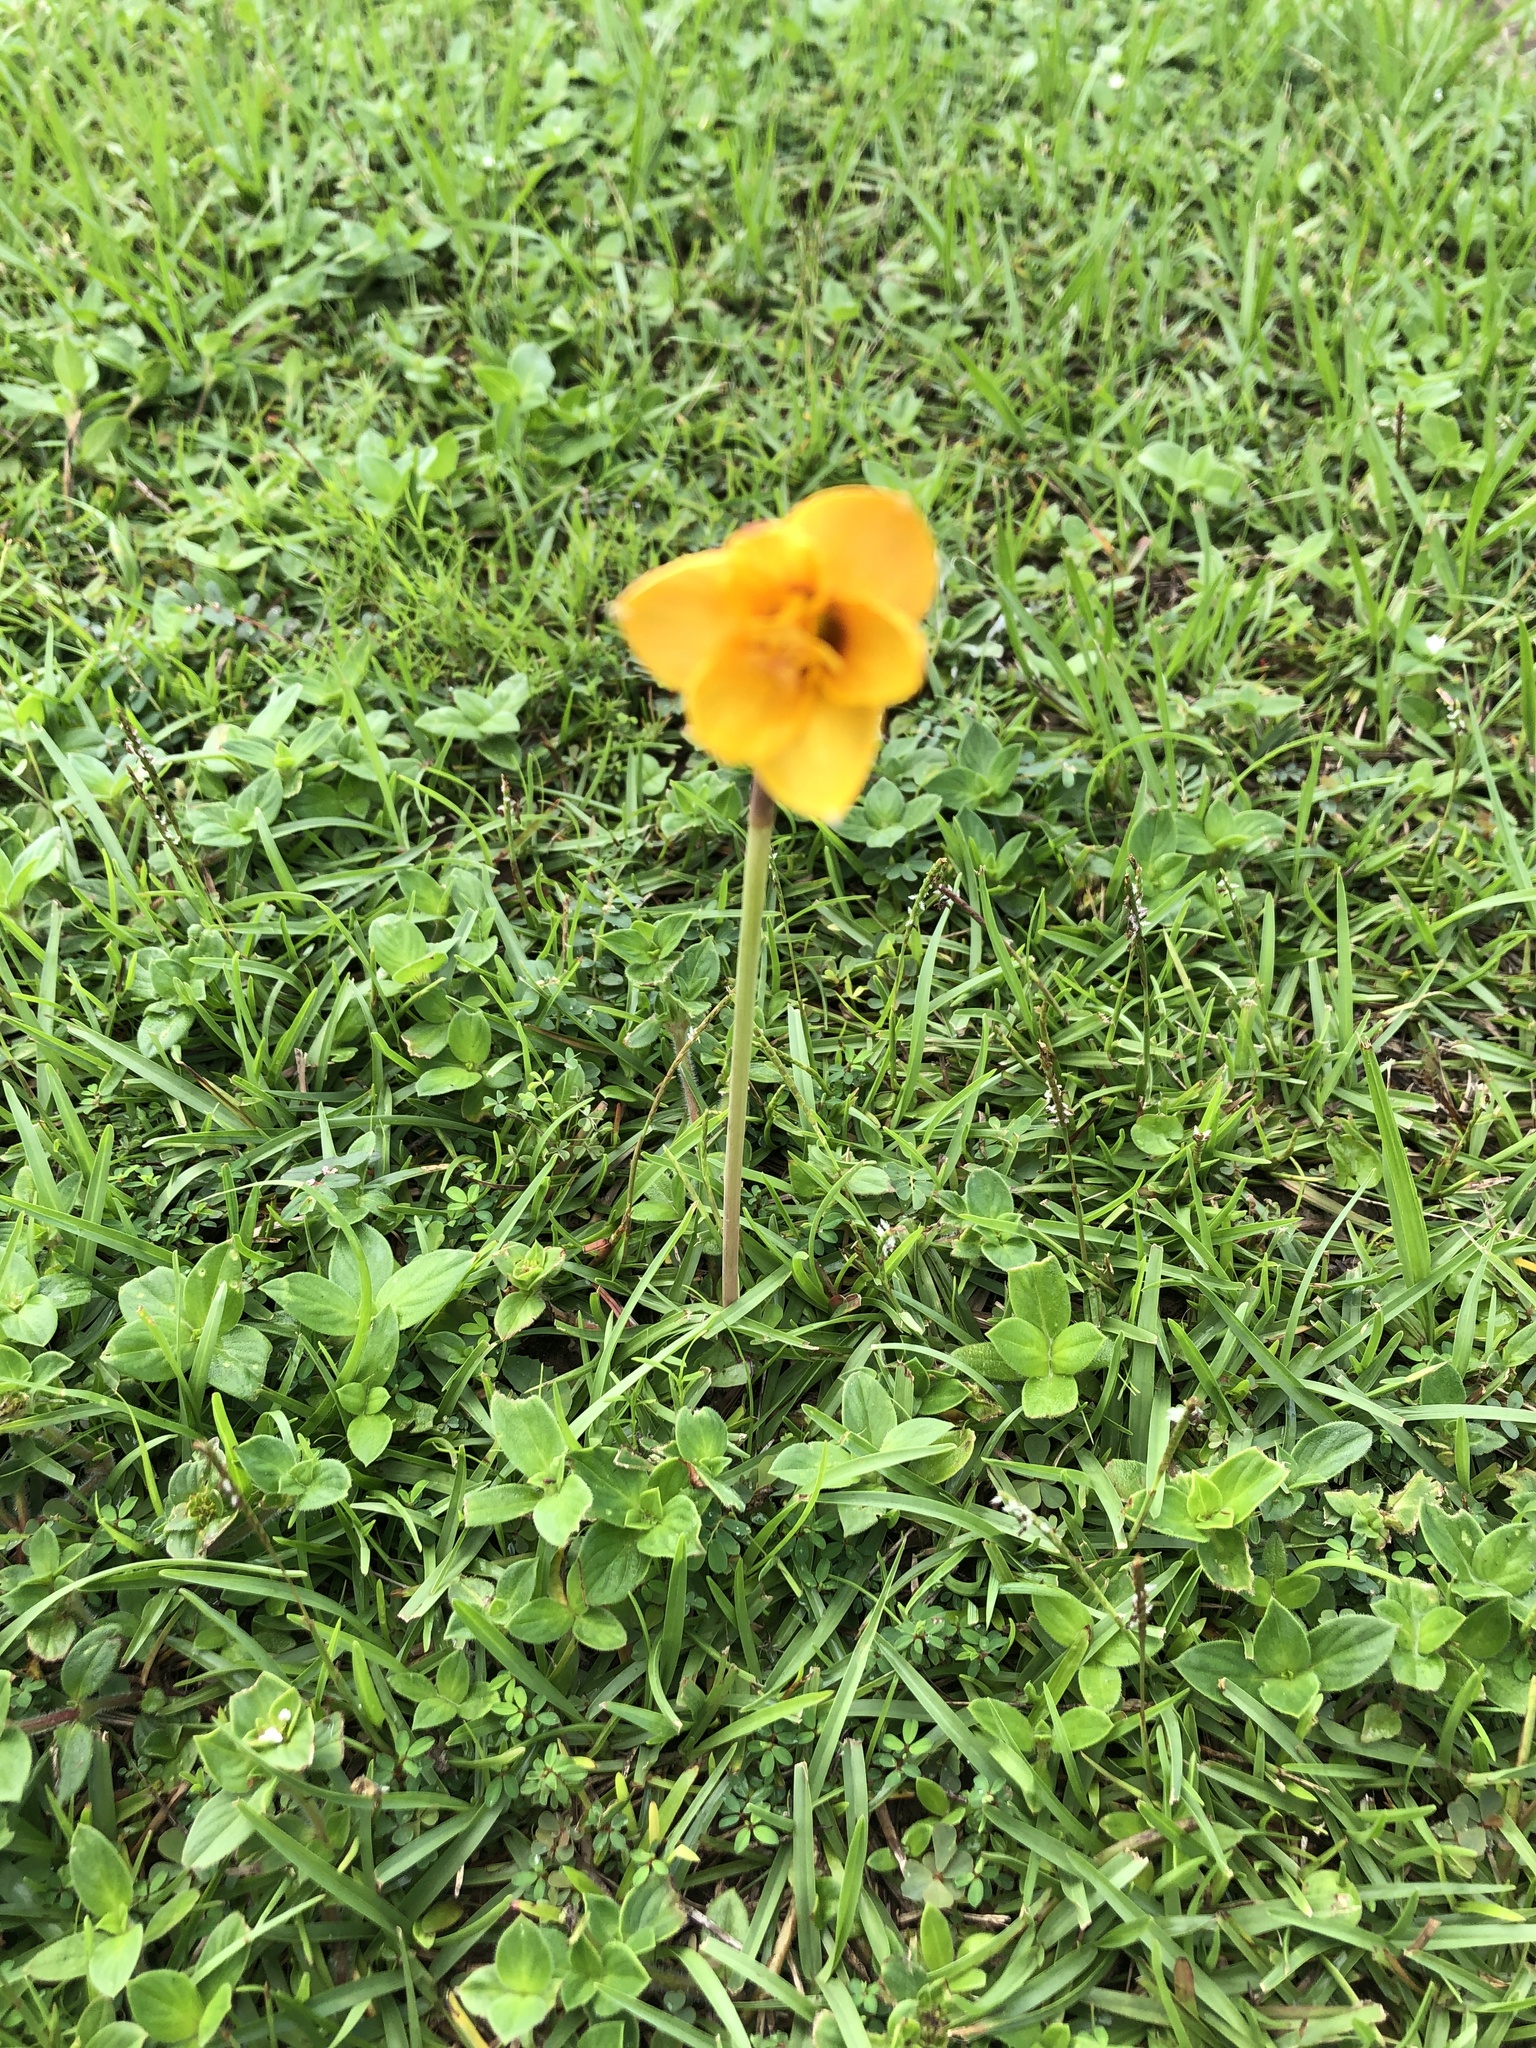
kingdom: Plantae
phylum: Tracheophyta
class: Liliopsida
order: Asparagales
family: Amaryllidaceae
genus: Zephyranthes
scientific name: Zephyranthes tubispatha
